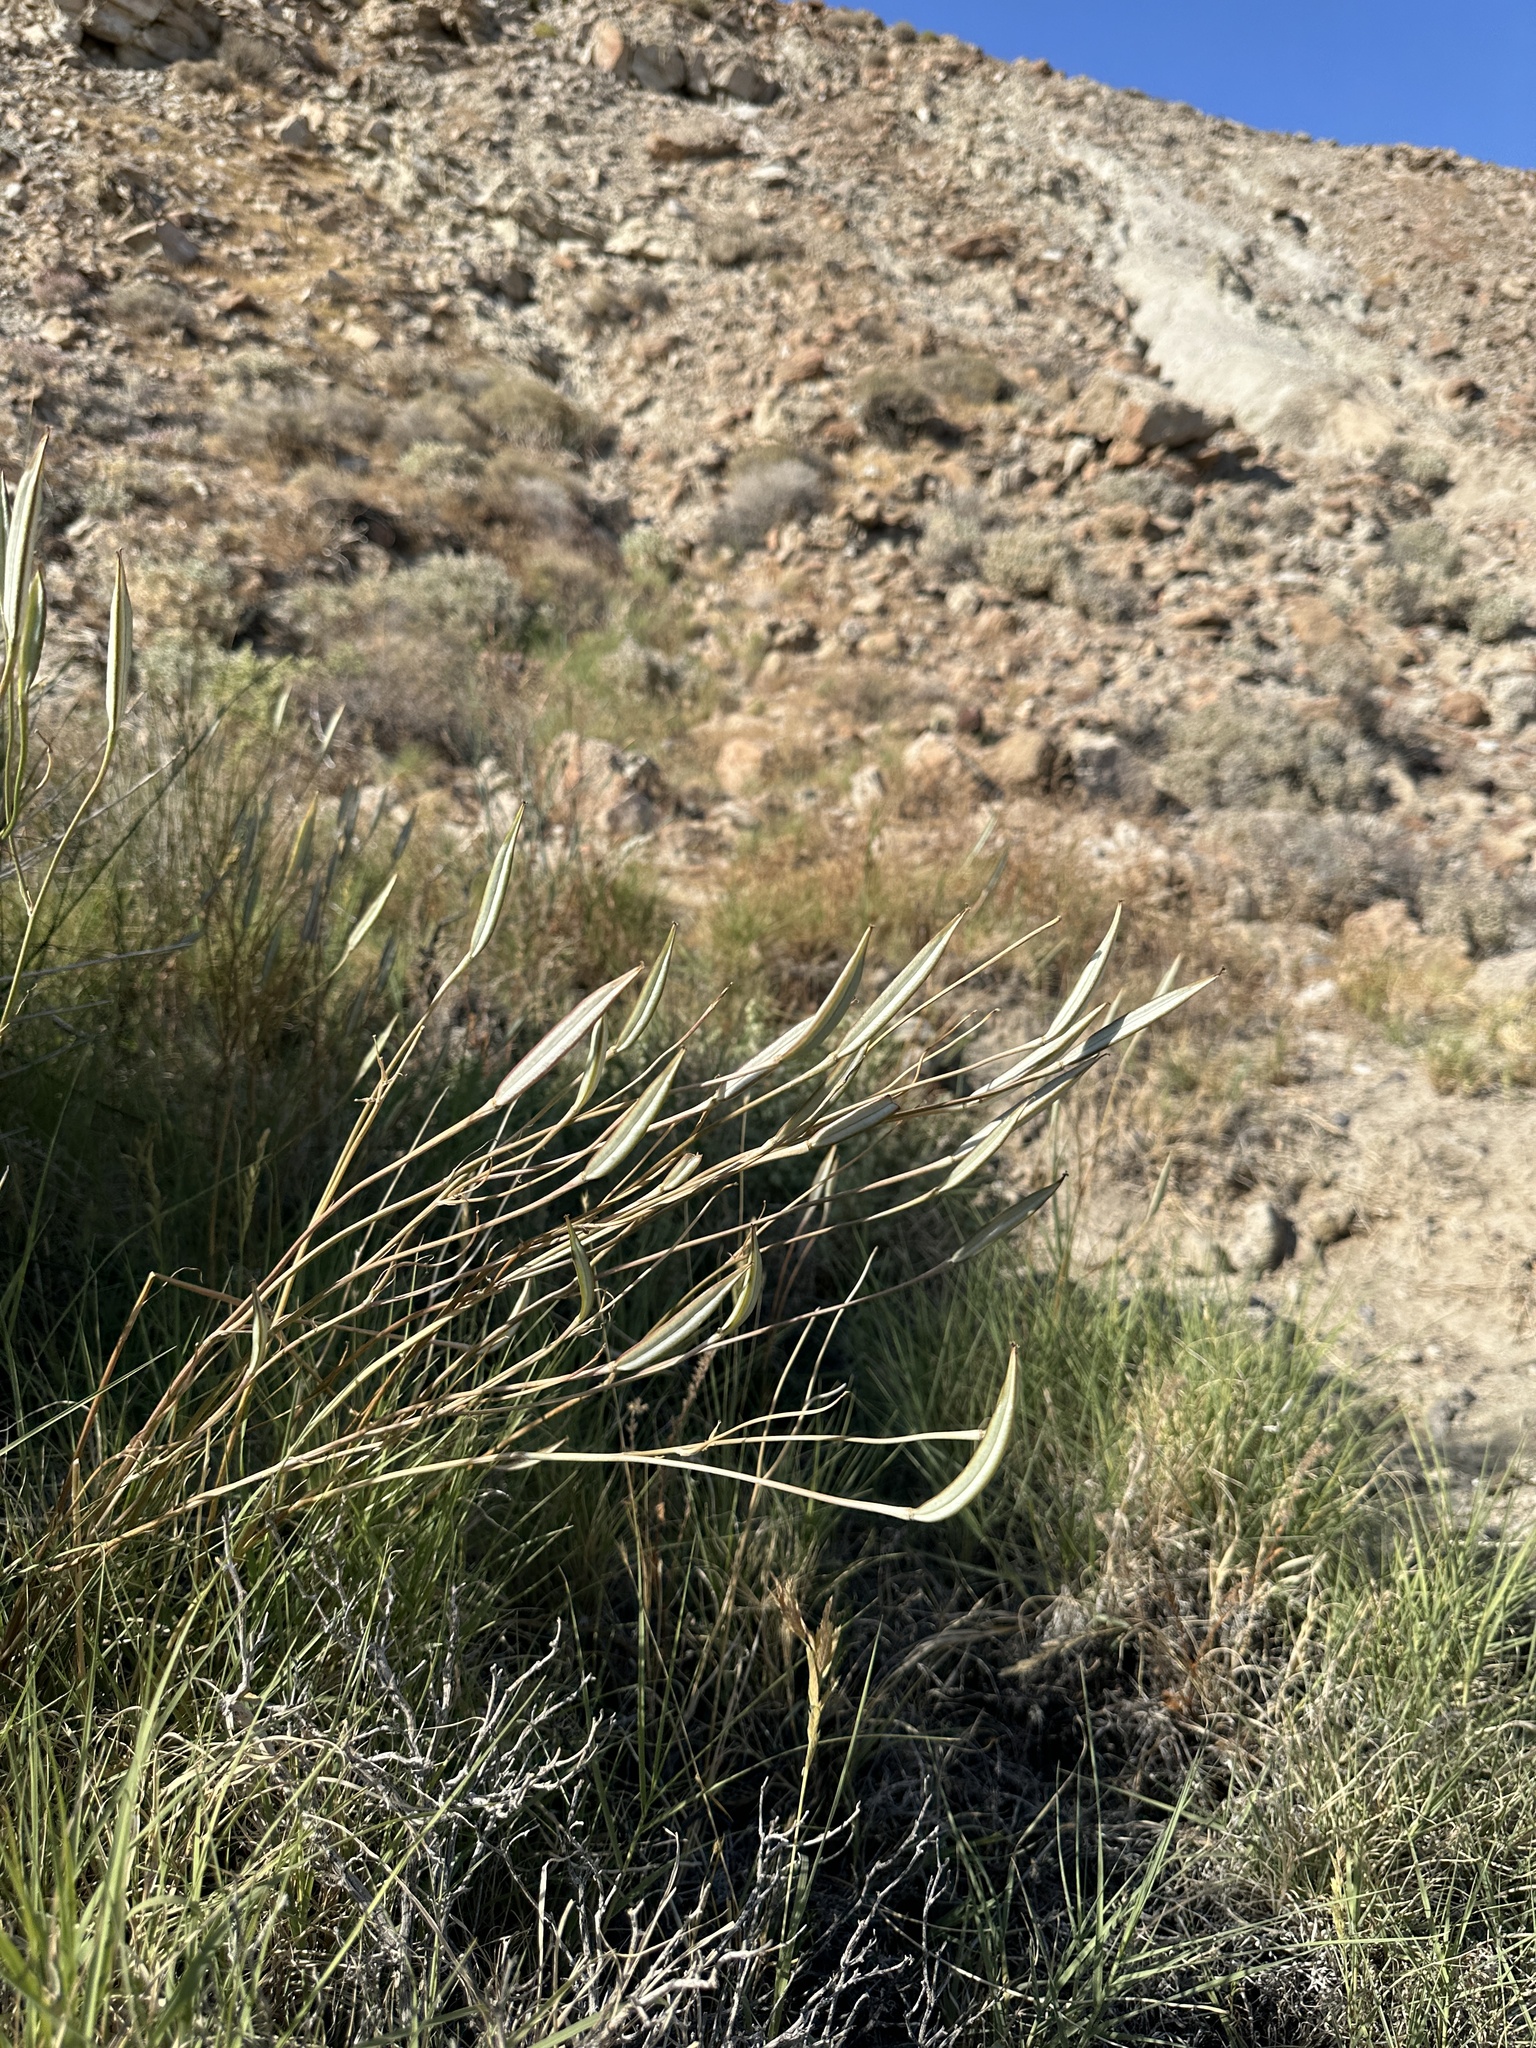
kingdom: Plantae
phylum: Tracheophyta
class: Liliopsida
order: Liliales
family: Liliaceae
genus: Calochortus
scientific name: Calochortus striatus
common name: Alkali mariposa-lily
